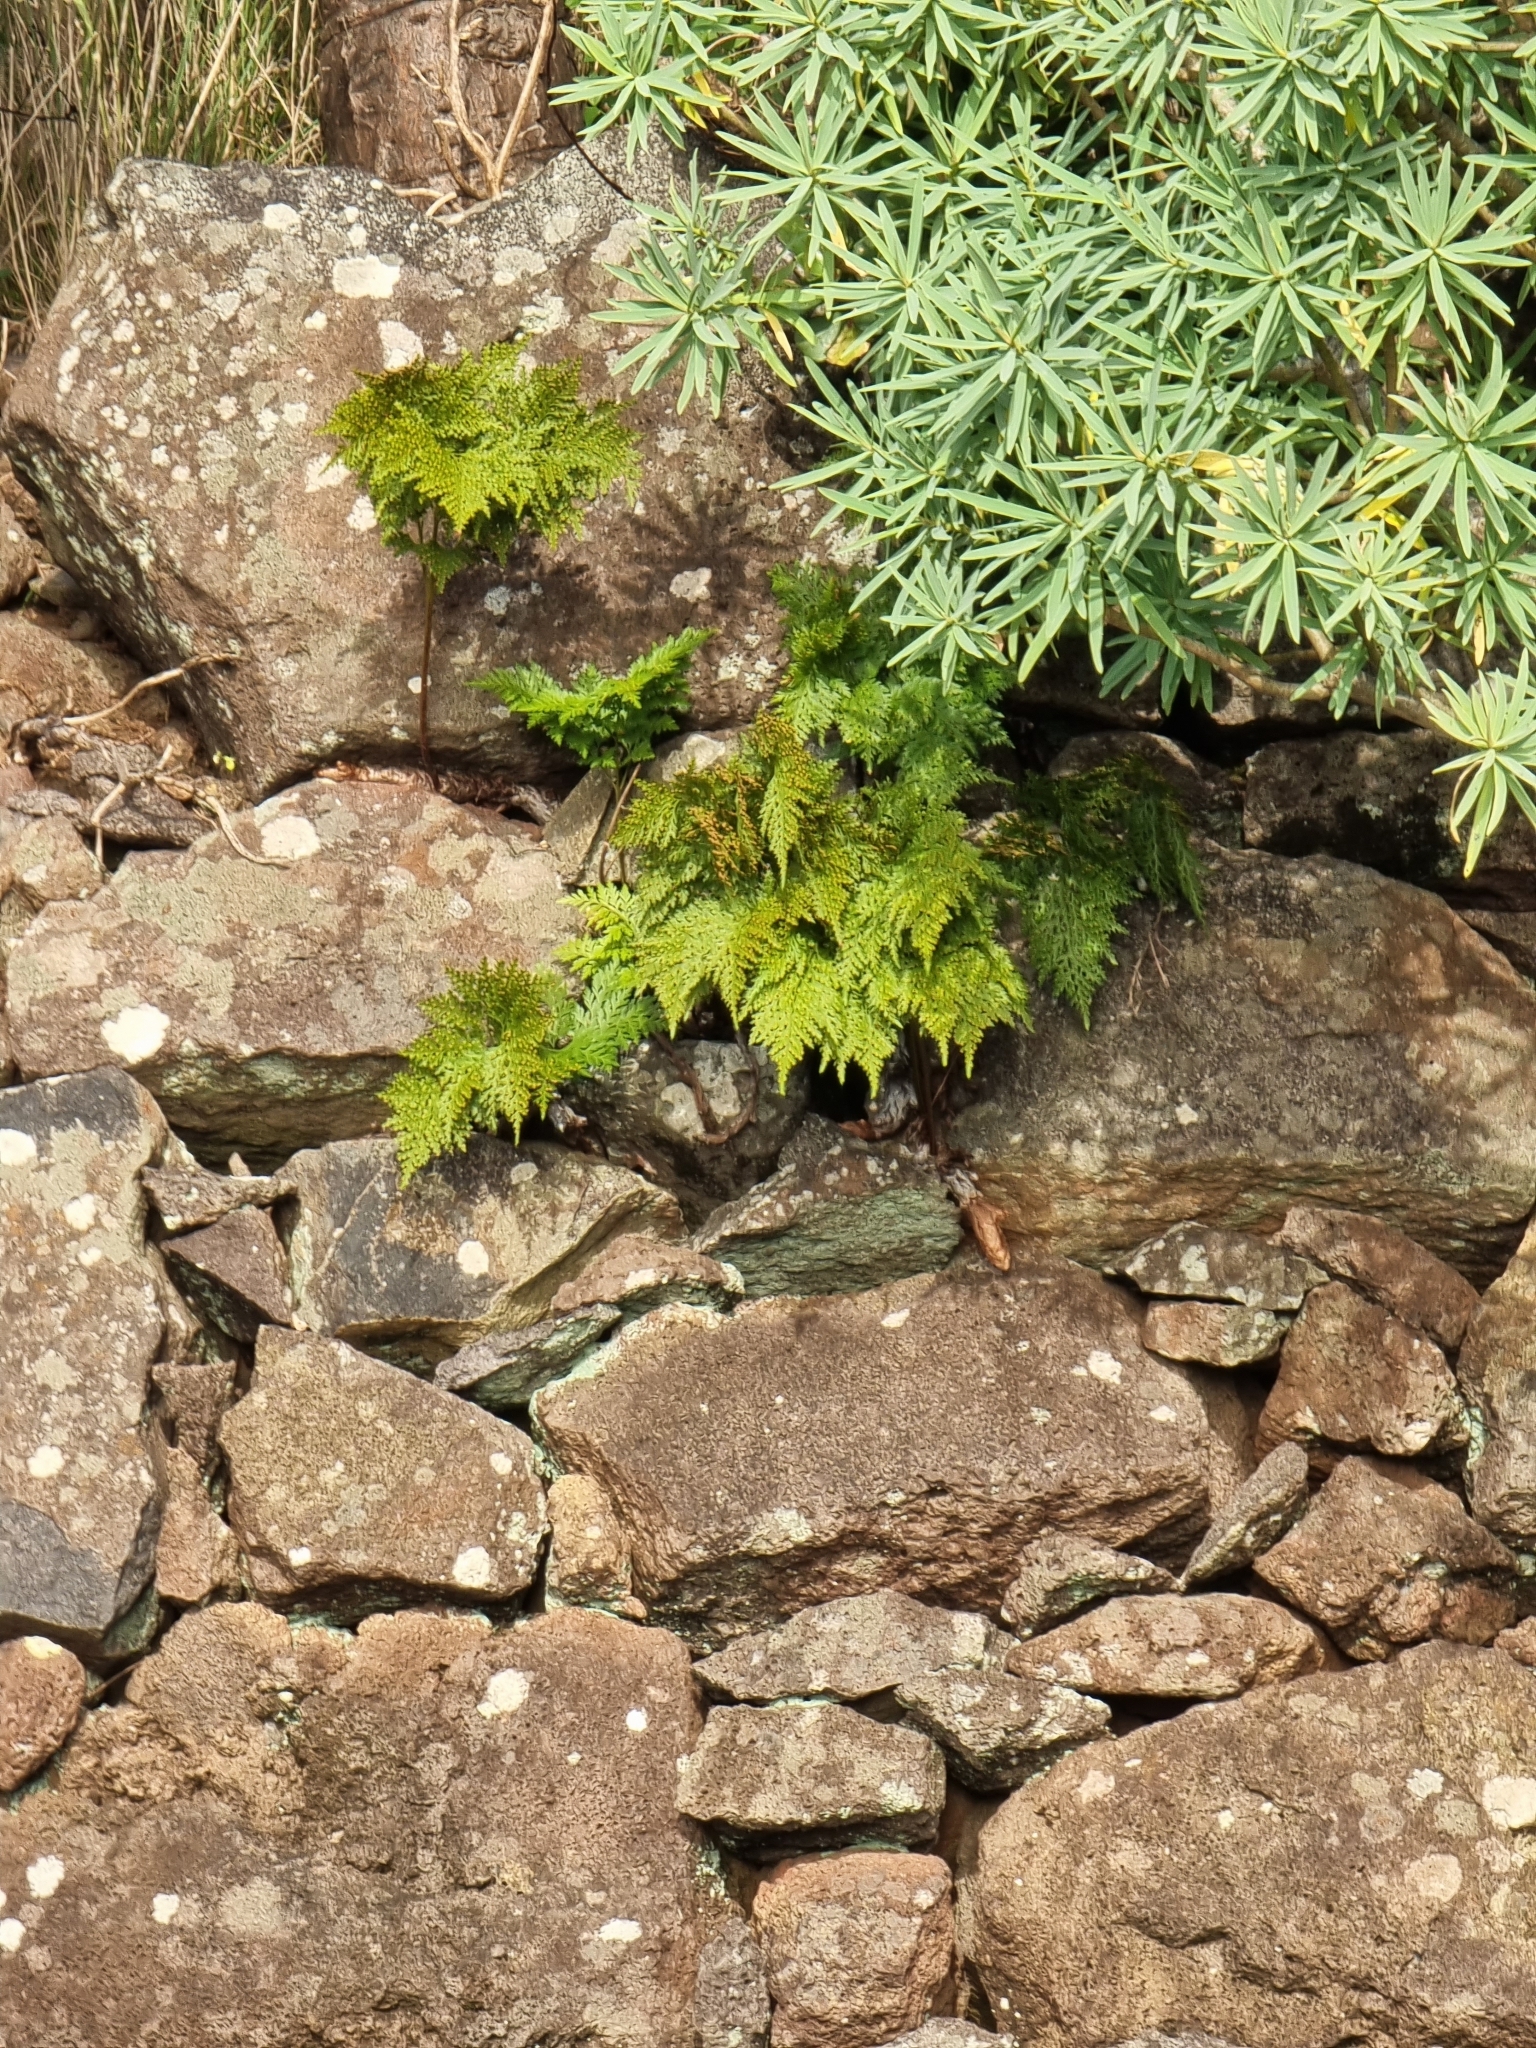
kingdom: Plantae
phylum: Tracheophyta
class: Polypodiopsida
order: Polypodiales
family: Davalliaceae
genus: Davallia
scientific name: Davallia canariensis
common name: Hare's-foot fern
